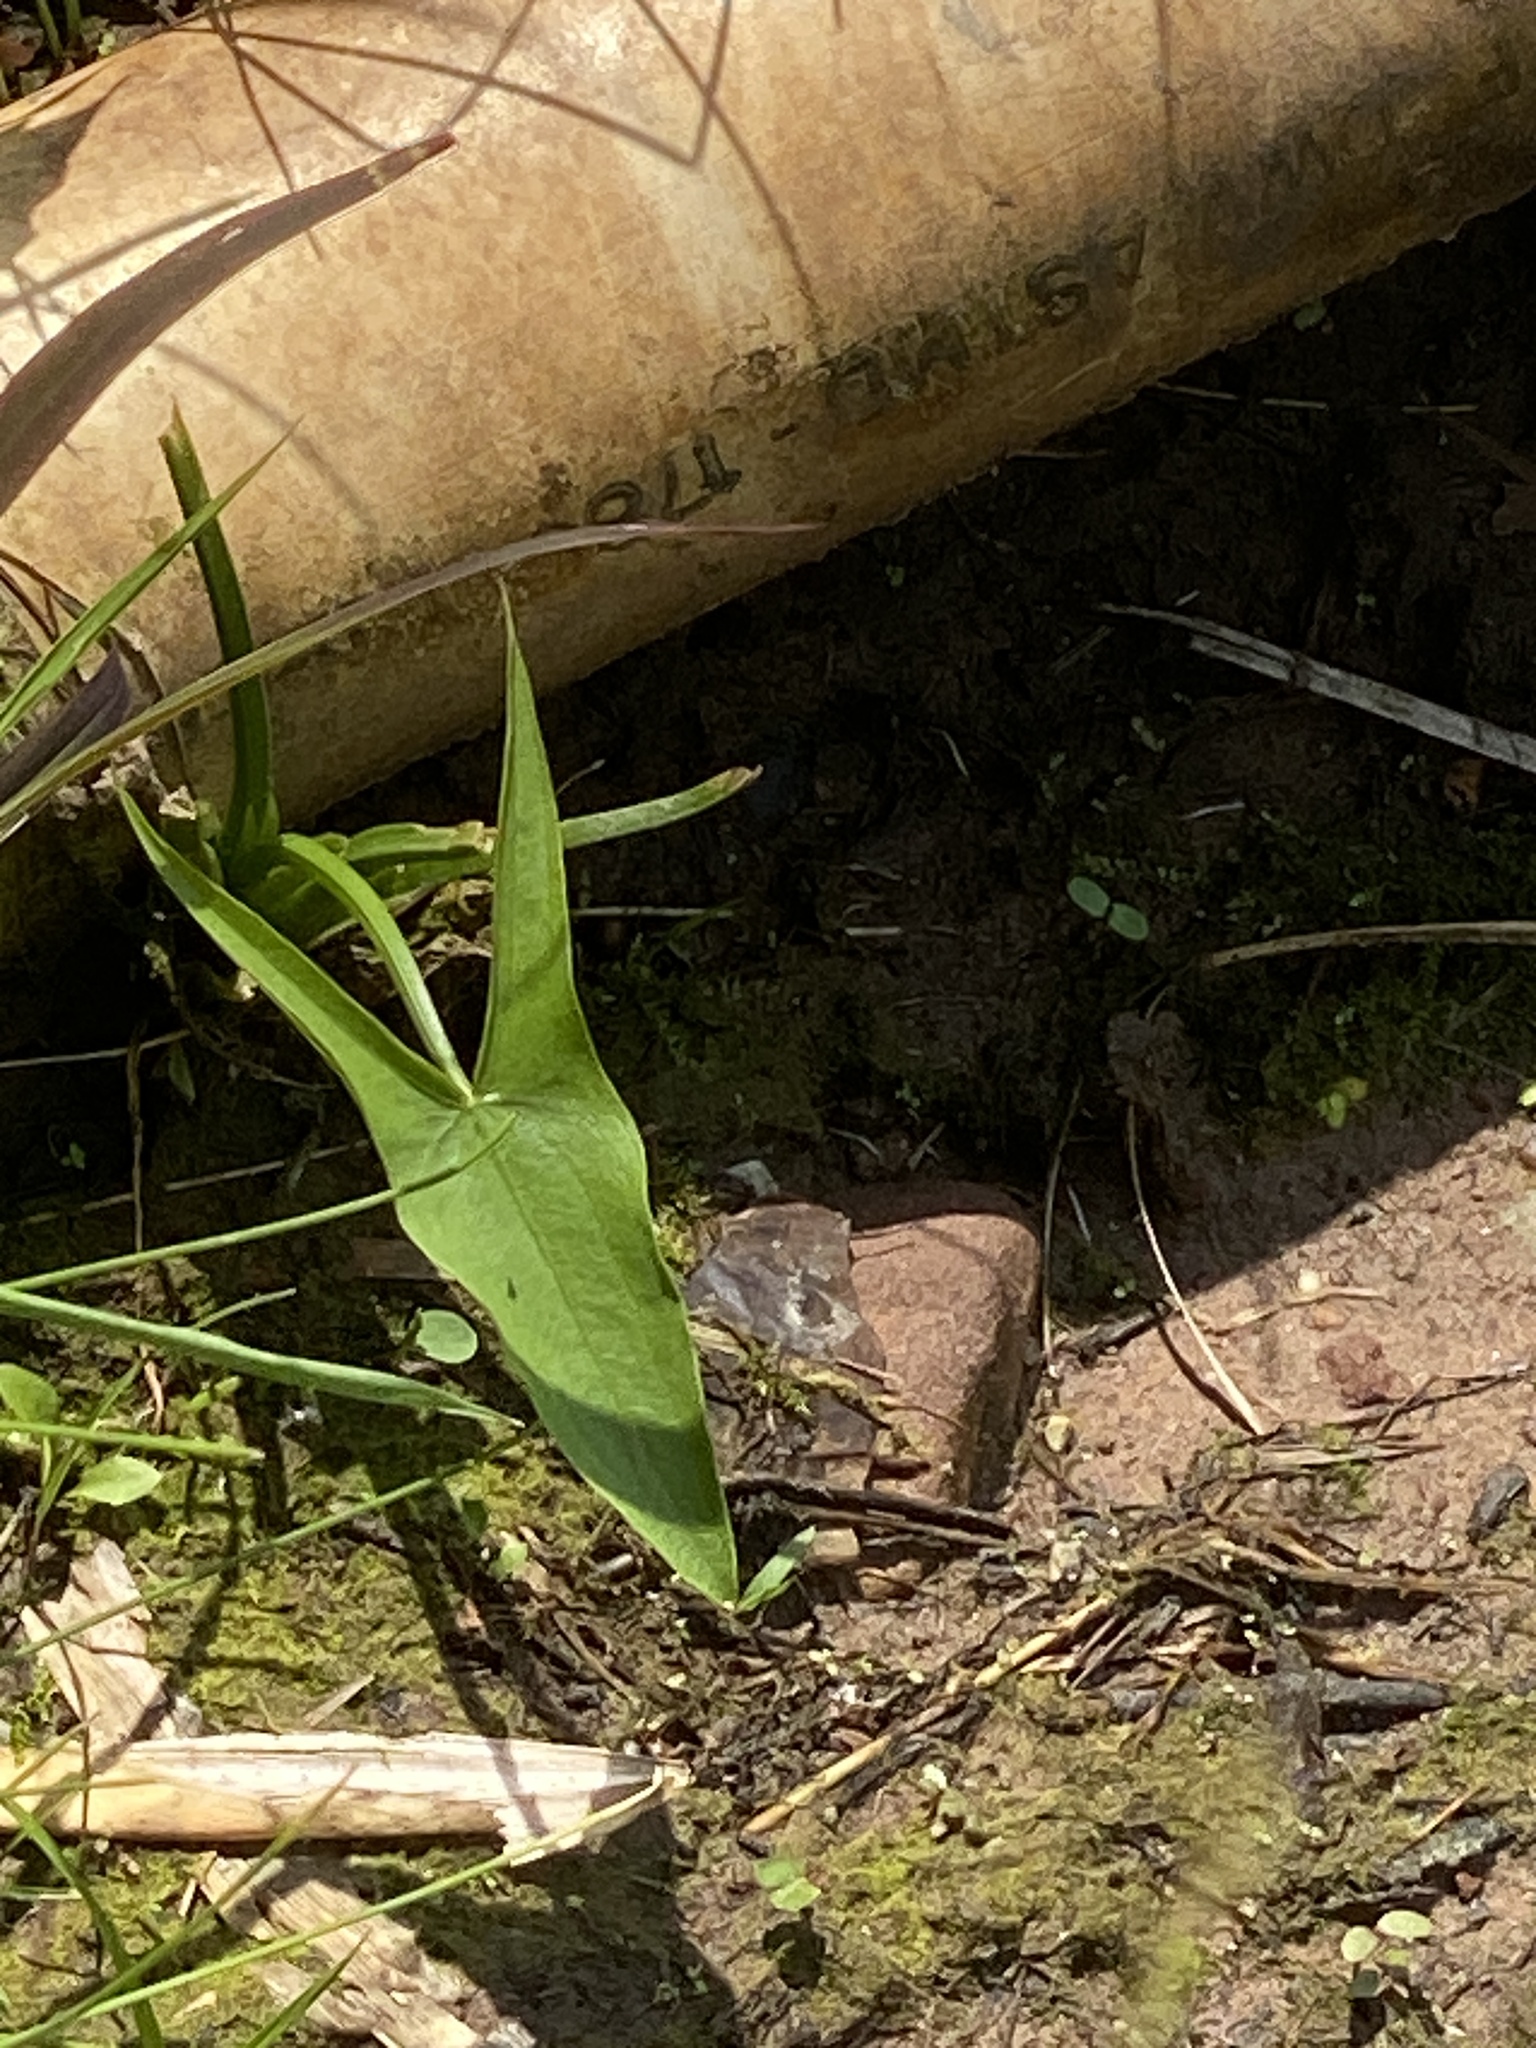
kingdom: Plantae
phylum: Tracheophyta
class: Liliopsida
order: Alismatales
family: Alismataceae
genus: Sagittaria
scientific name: Sagittaria latifolia
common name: Duck-potato
